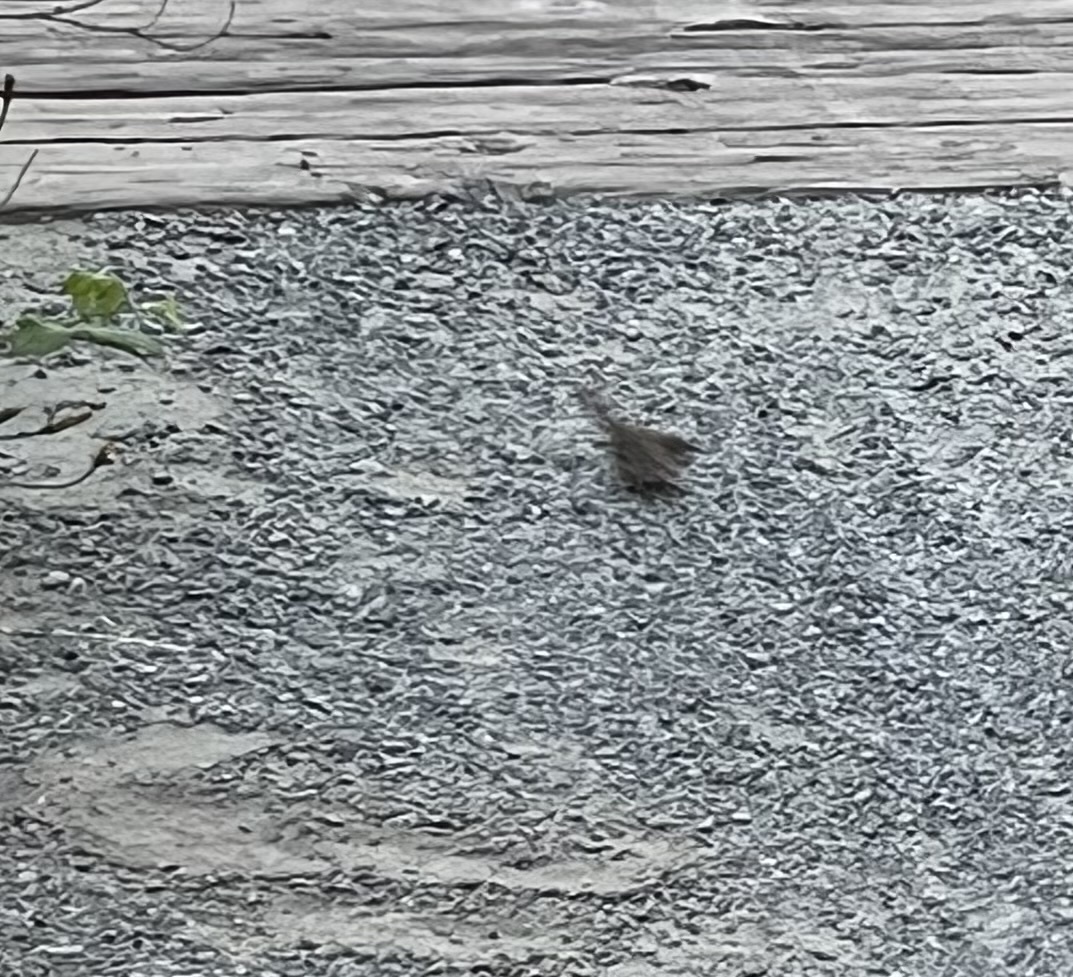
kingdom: Animalia
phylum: Chordata
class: Aves
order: Passeriformes
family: Troglodytidae
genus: Thryomanes
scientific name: Thryomanes bewickii
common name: Bewick's wren
